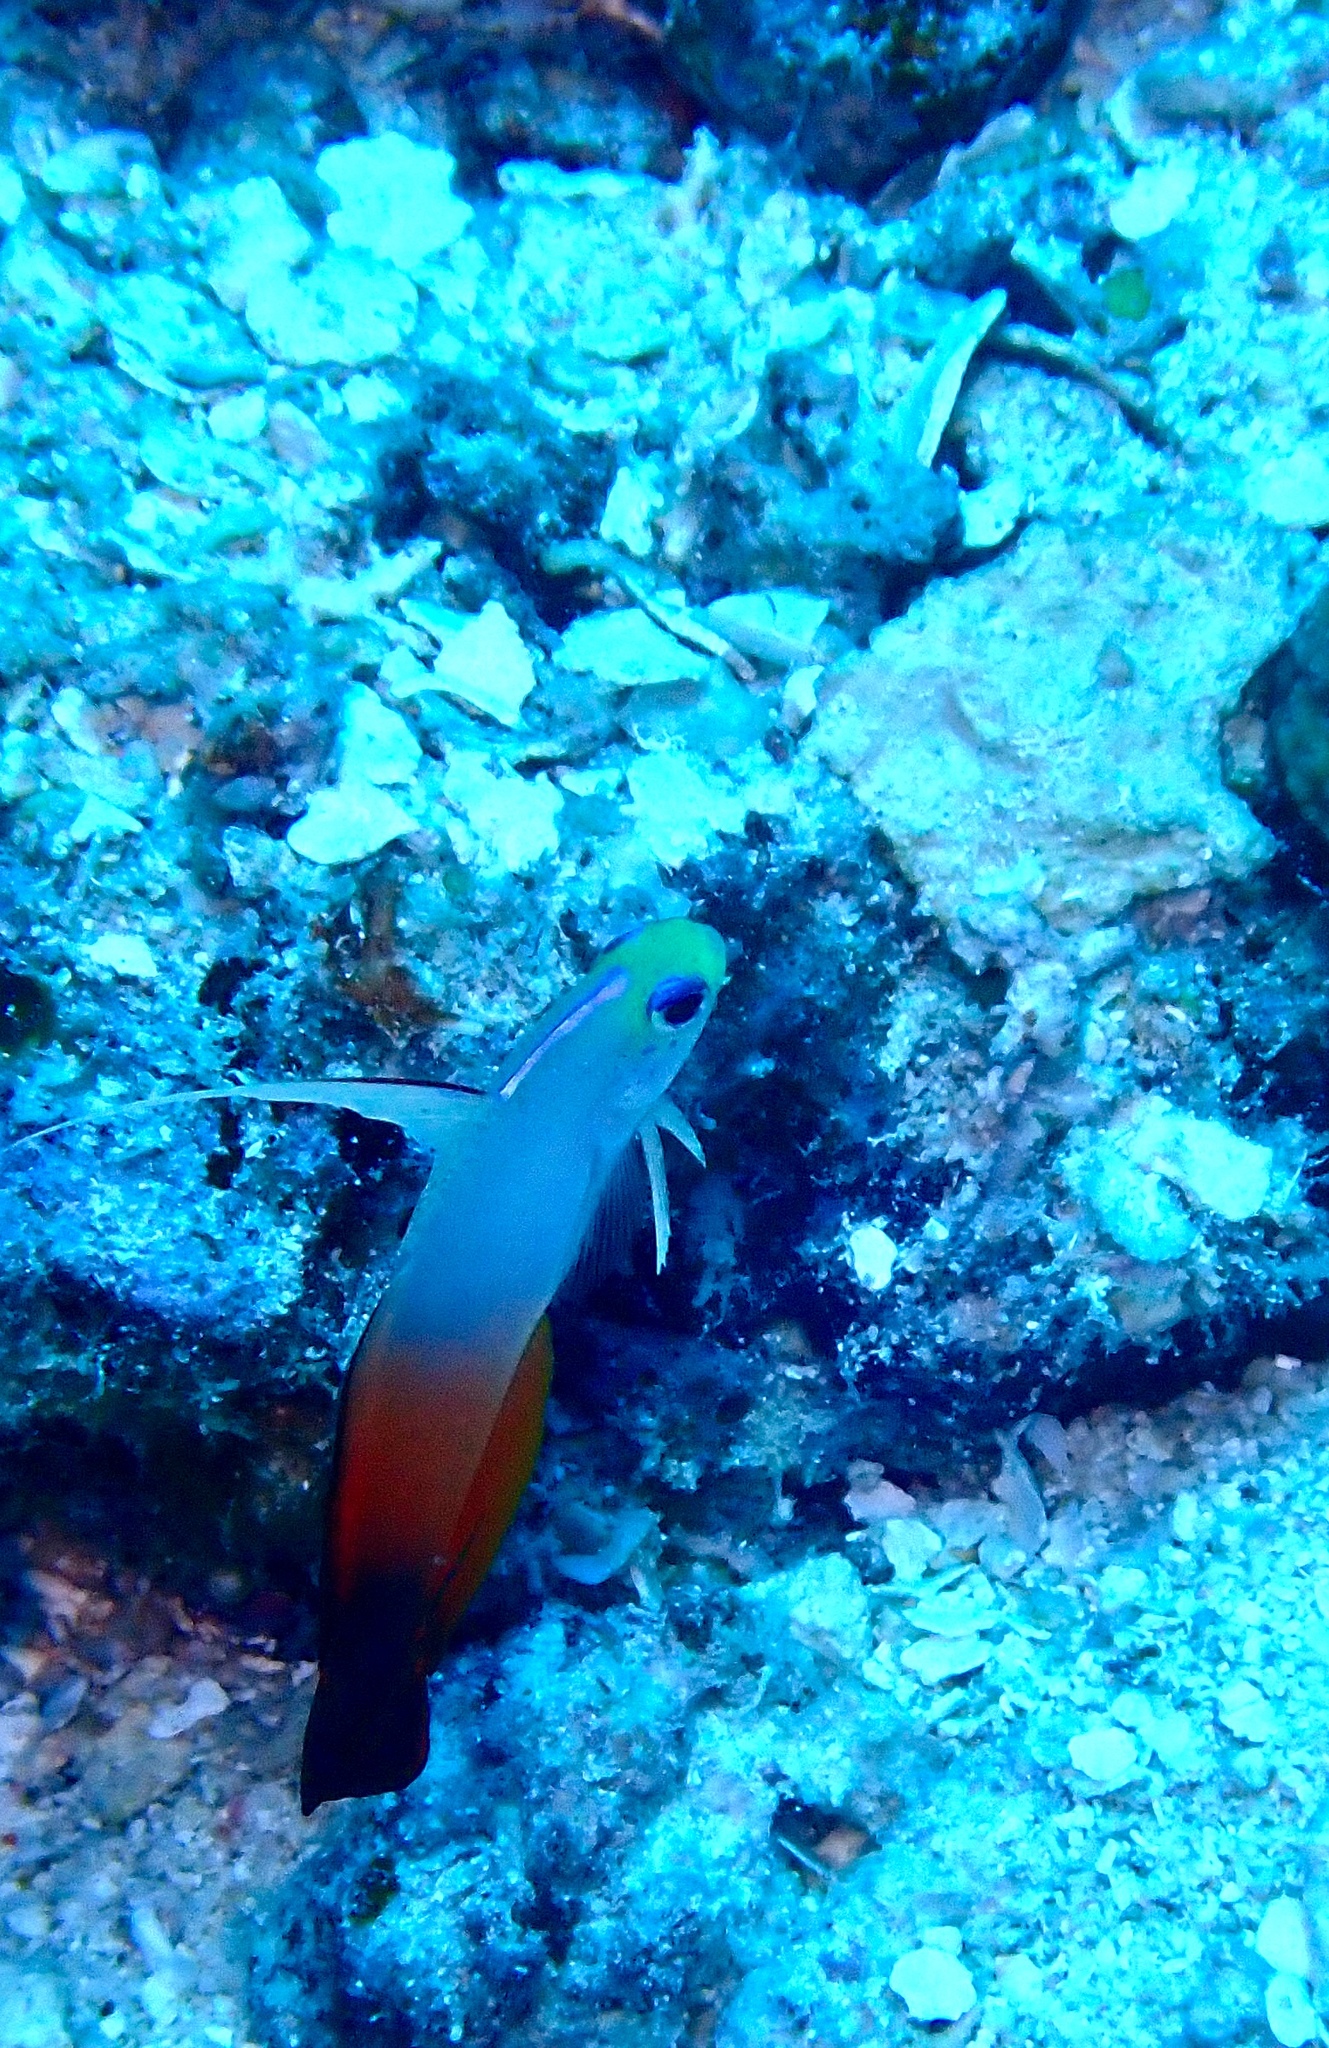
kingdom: Animalia
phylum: Chordata
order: Perciformes
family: Microdesmidae
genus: Nemateleotris
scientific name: Nemateleotris magnifica
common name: Fire goby
